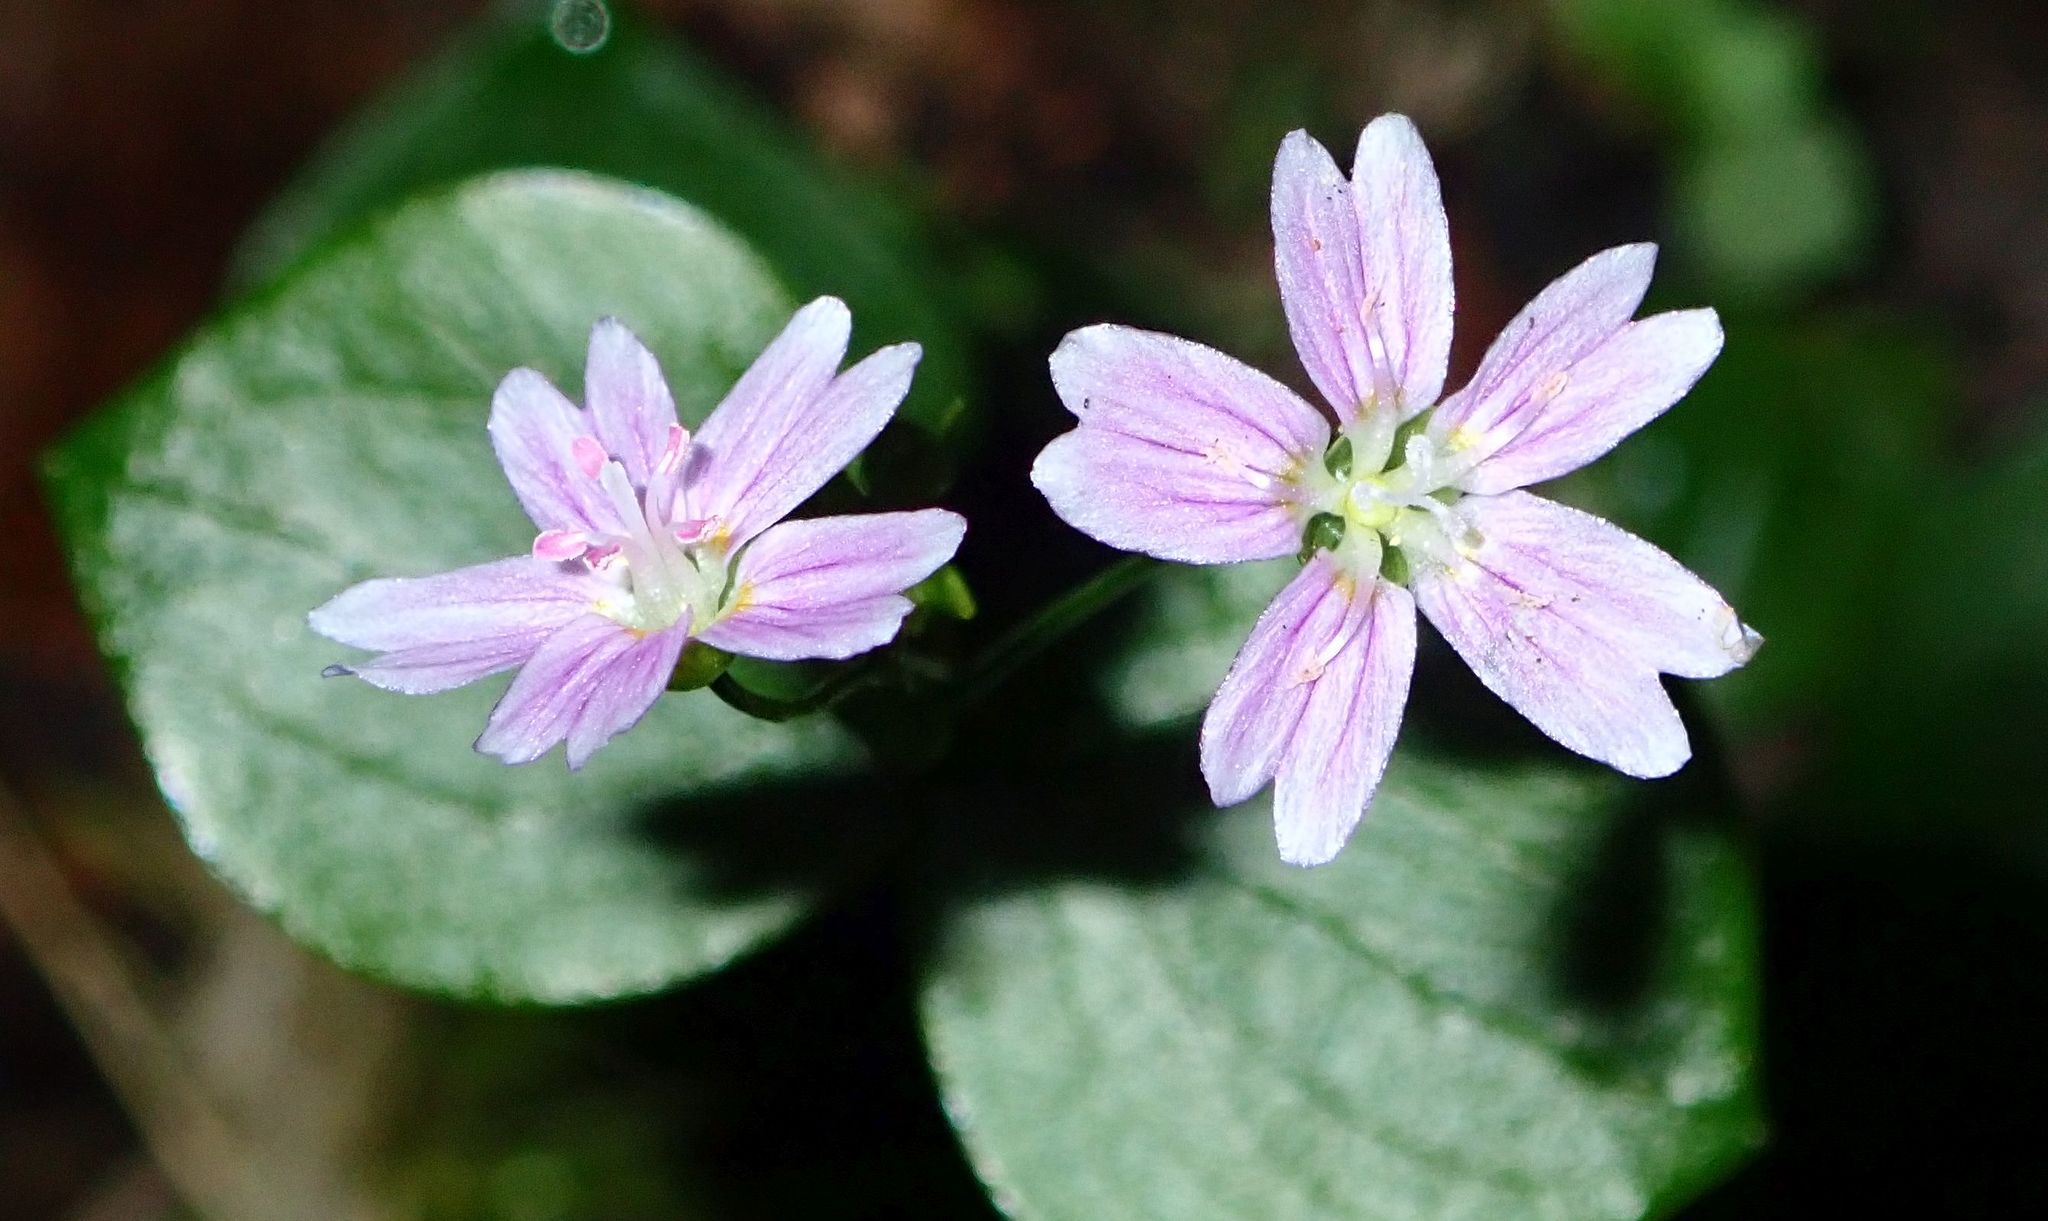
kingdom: Plantae
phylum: Tracheophyta
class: Magnoliopsida
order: Caryophyllales
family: Montiaceae
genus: Claytonia
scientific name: Claytonia sibirica
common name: Pink purslane
